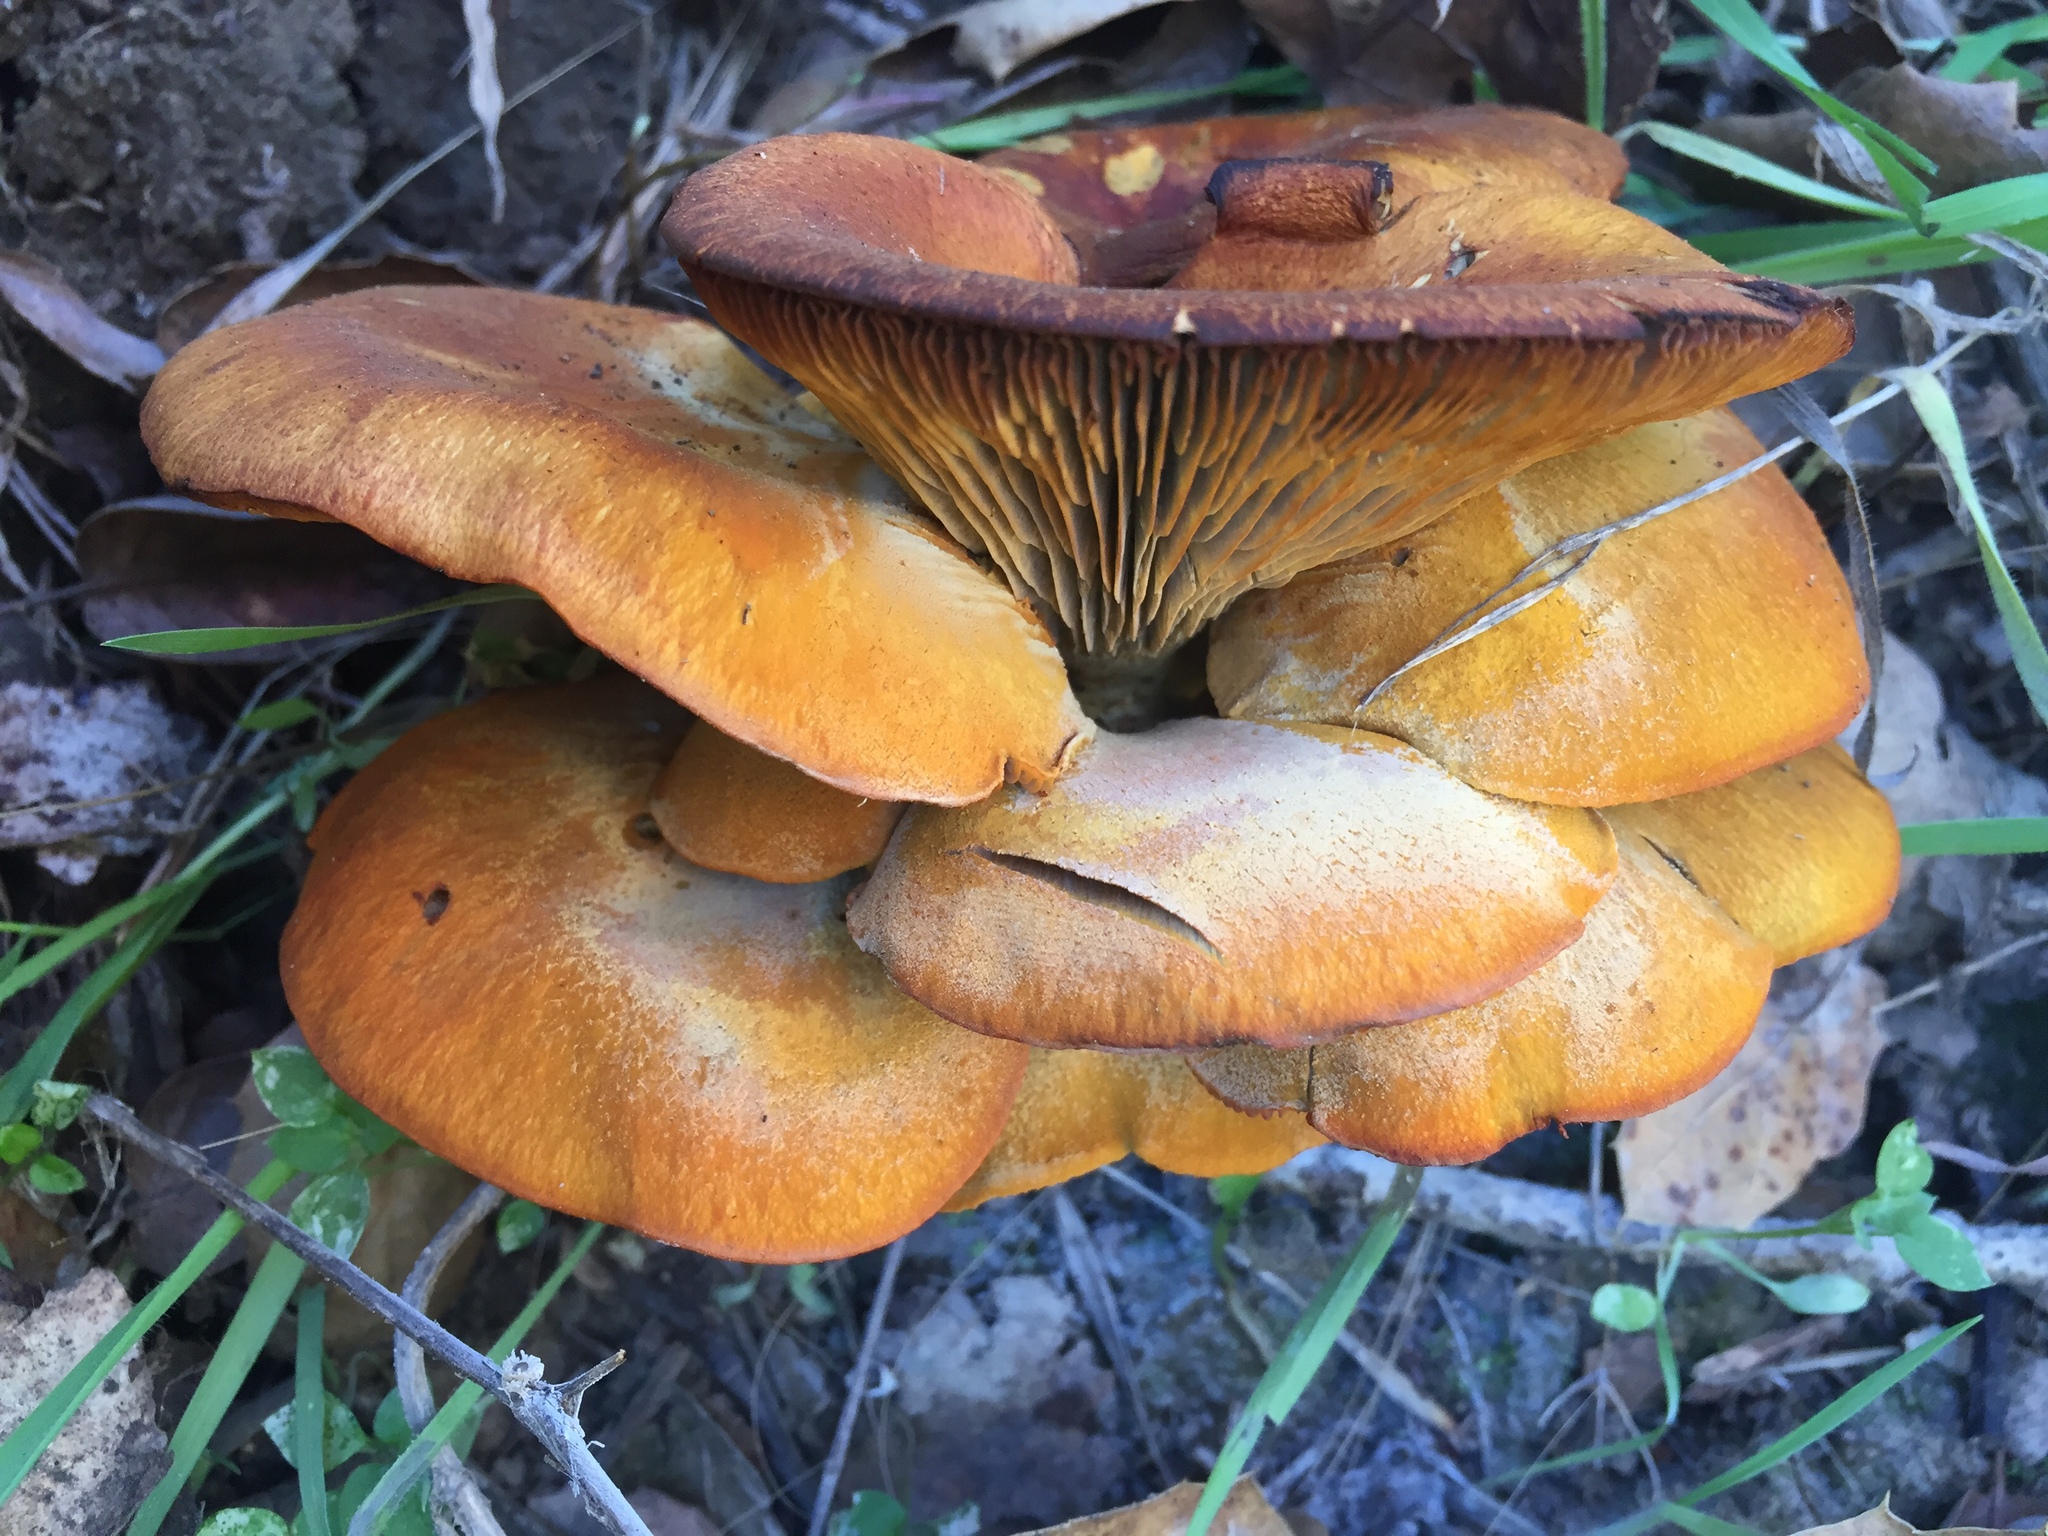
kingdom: Fungi
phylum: Basidiomycota
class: Agaricomycetes
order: Agaricales
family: Omphalotaceae
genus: Omphalotus
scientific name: Omphalotus olivascens
